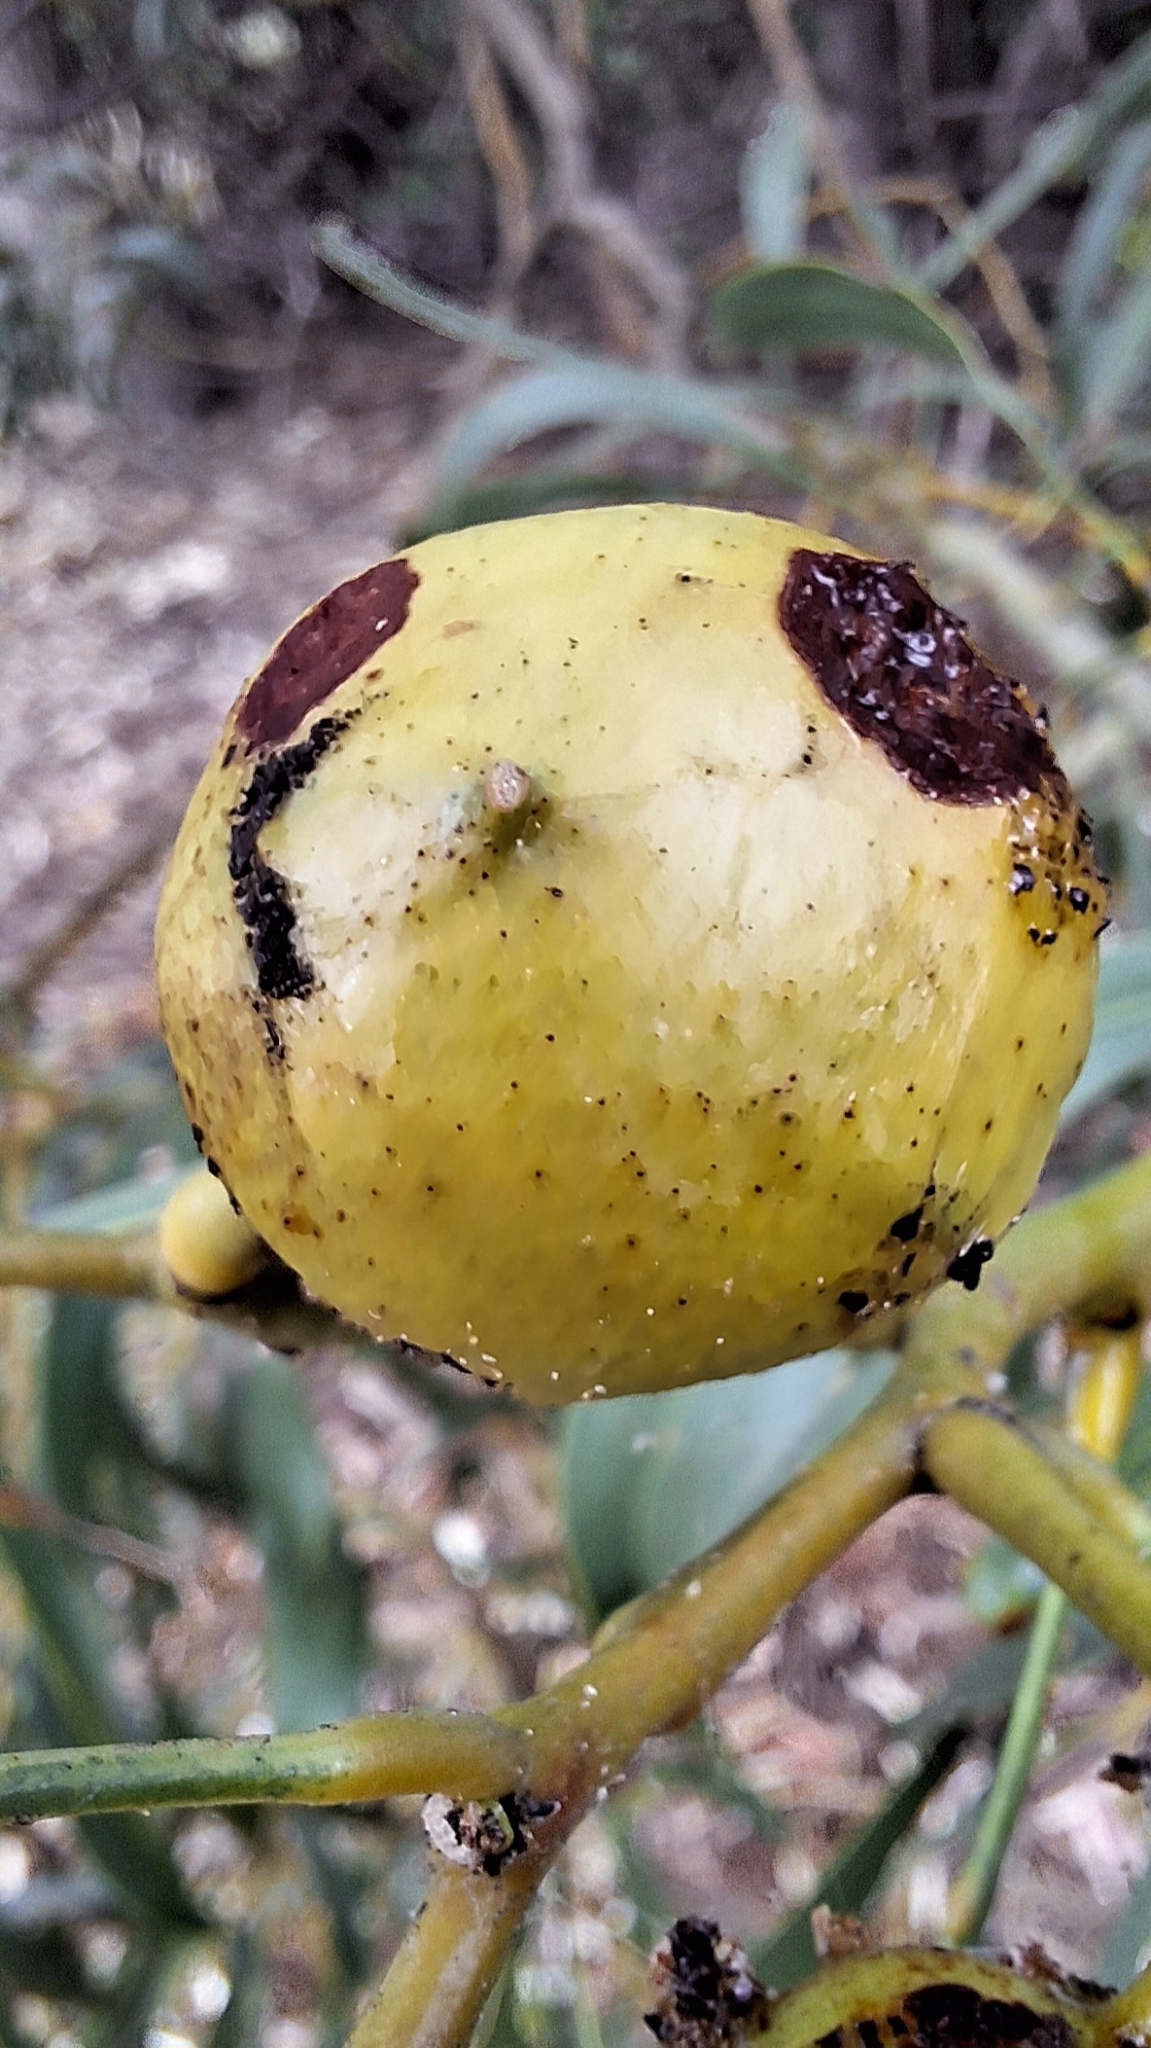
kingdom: Animalia
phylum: Arthropoda
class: Insecta
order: Hymenoptera
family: Pteromalidae
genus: Trichilogaster
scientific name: Trichilogaster signiventris
